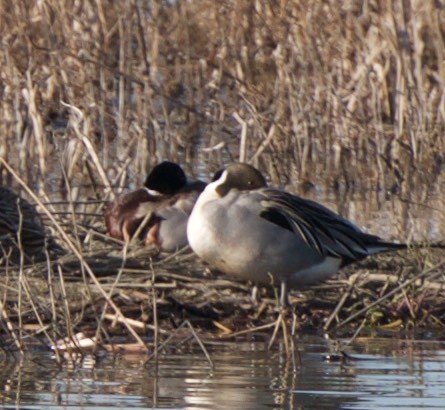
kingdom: Animalia
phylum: Chordata
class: Aves
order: Anseriformes
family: Anatidae
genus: Anas
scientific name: Anas acuta
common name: Northern pintail
